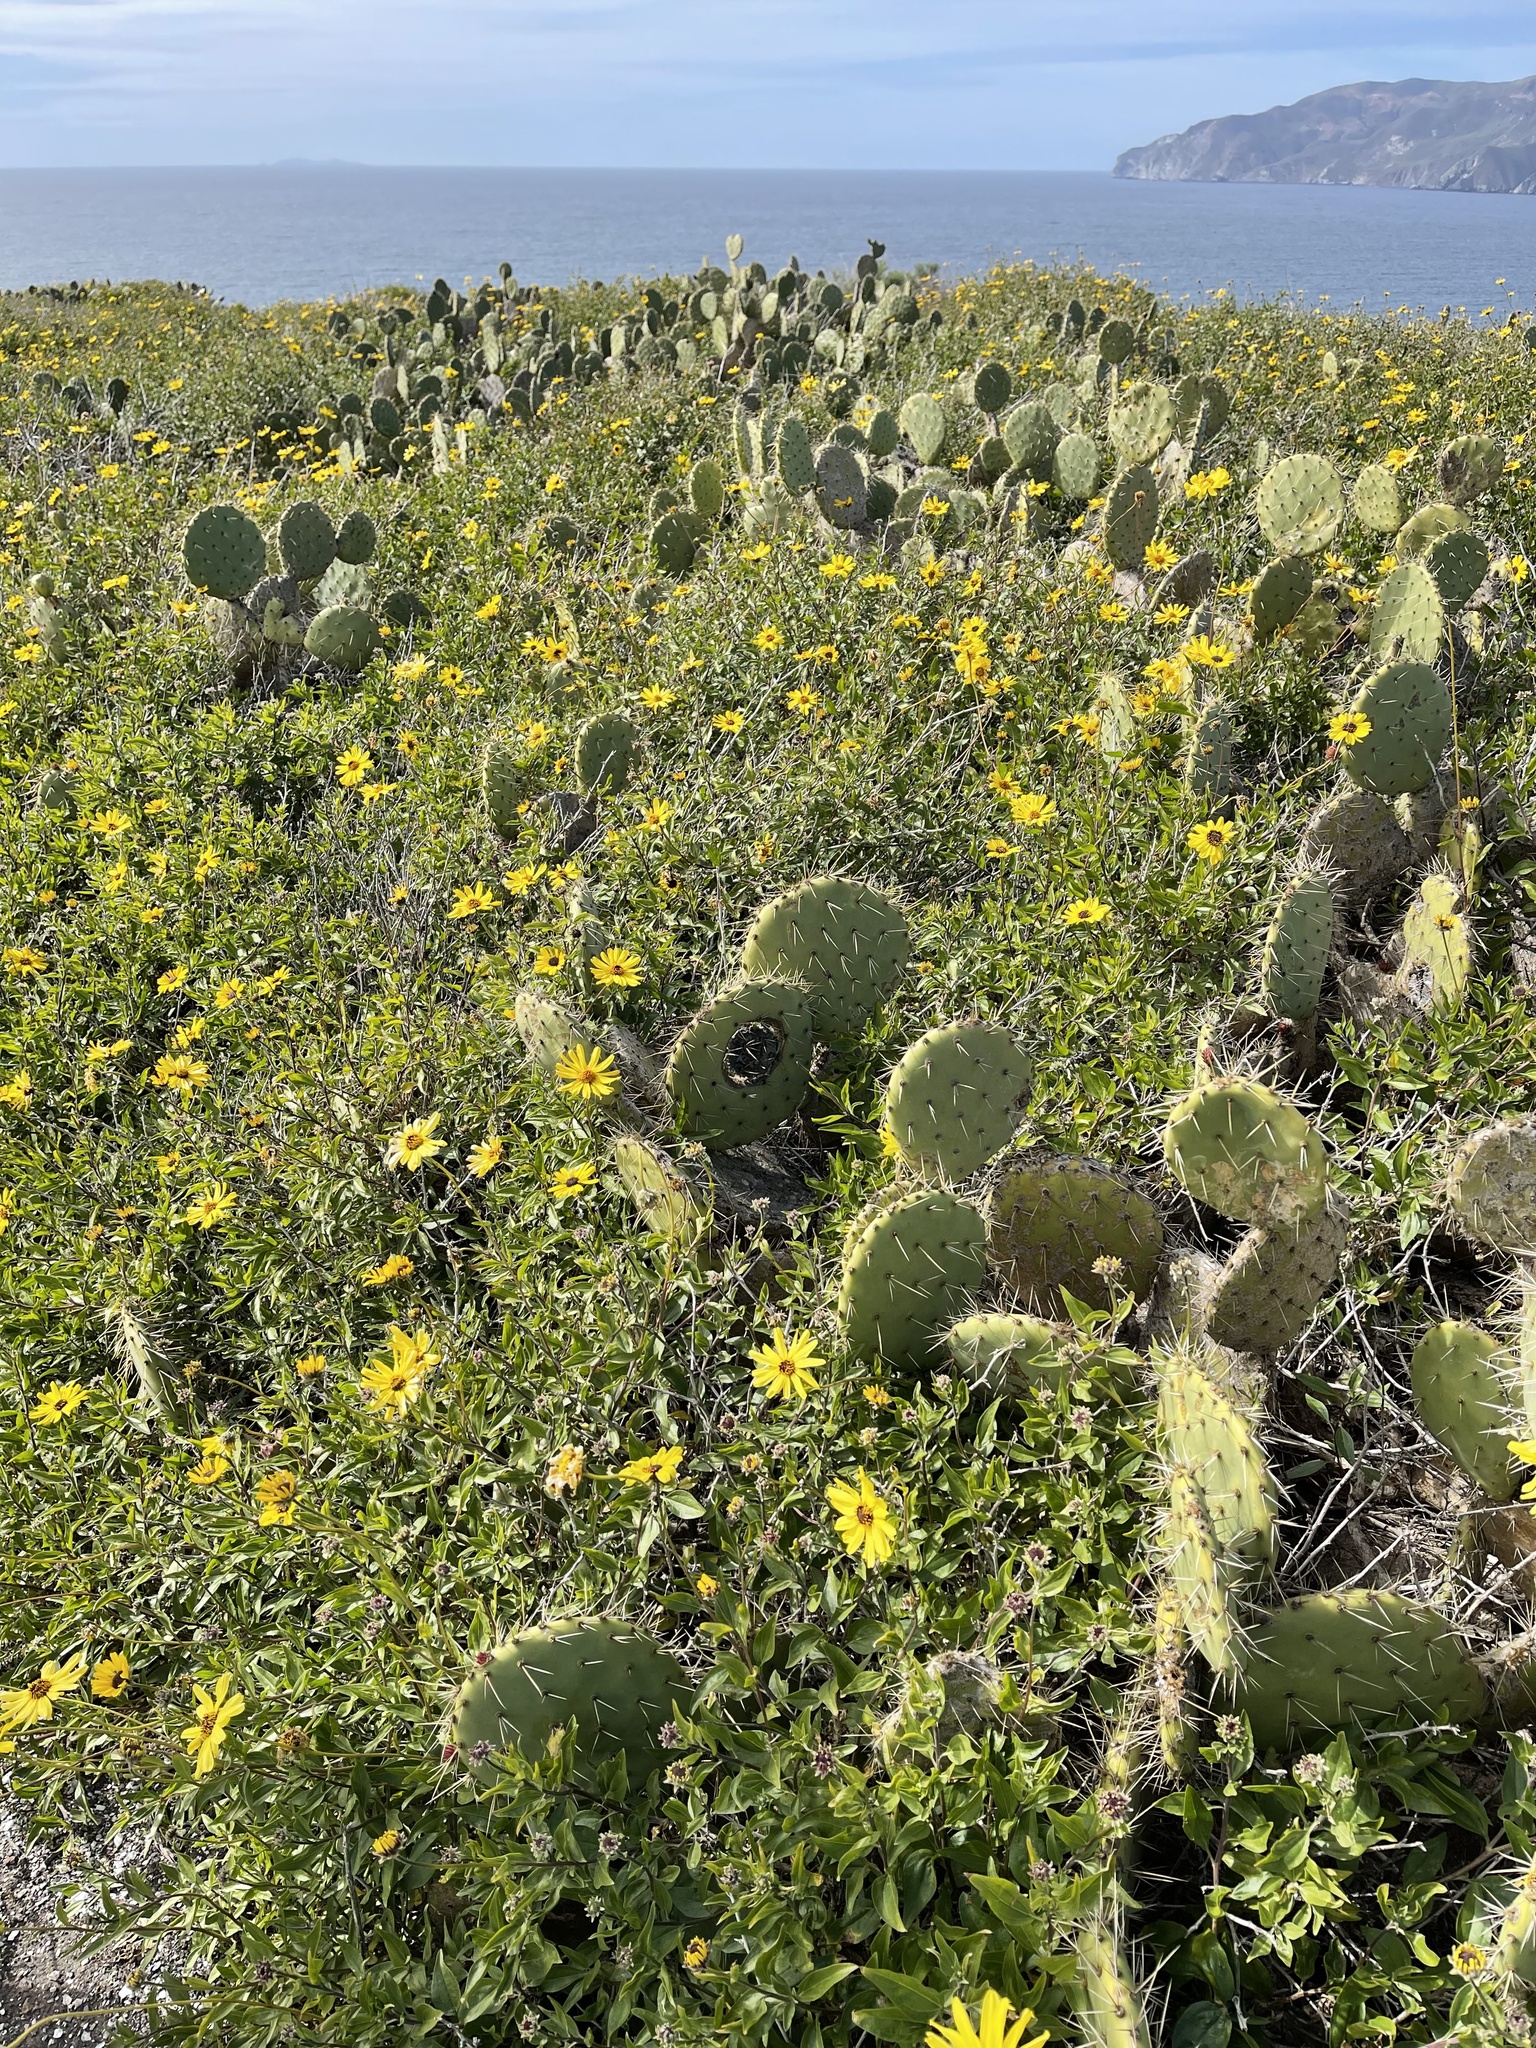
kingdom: Plantae
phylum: Tracheophyta
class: Magnoliopsida
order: Asterales
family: Asteraceae
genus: Encelia
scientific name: Encelia californica
